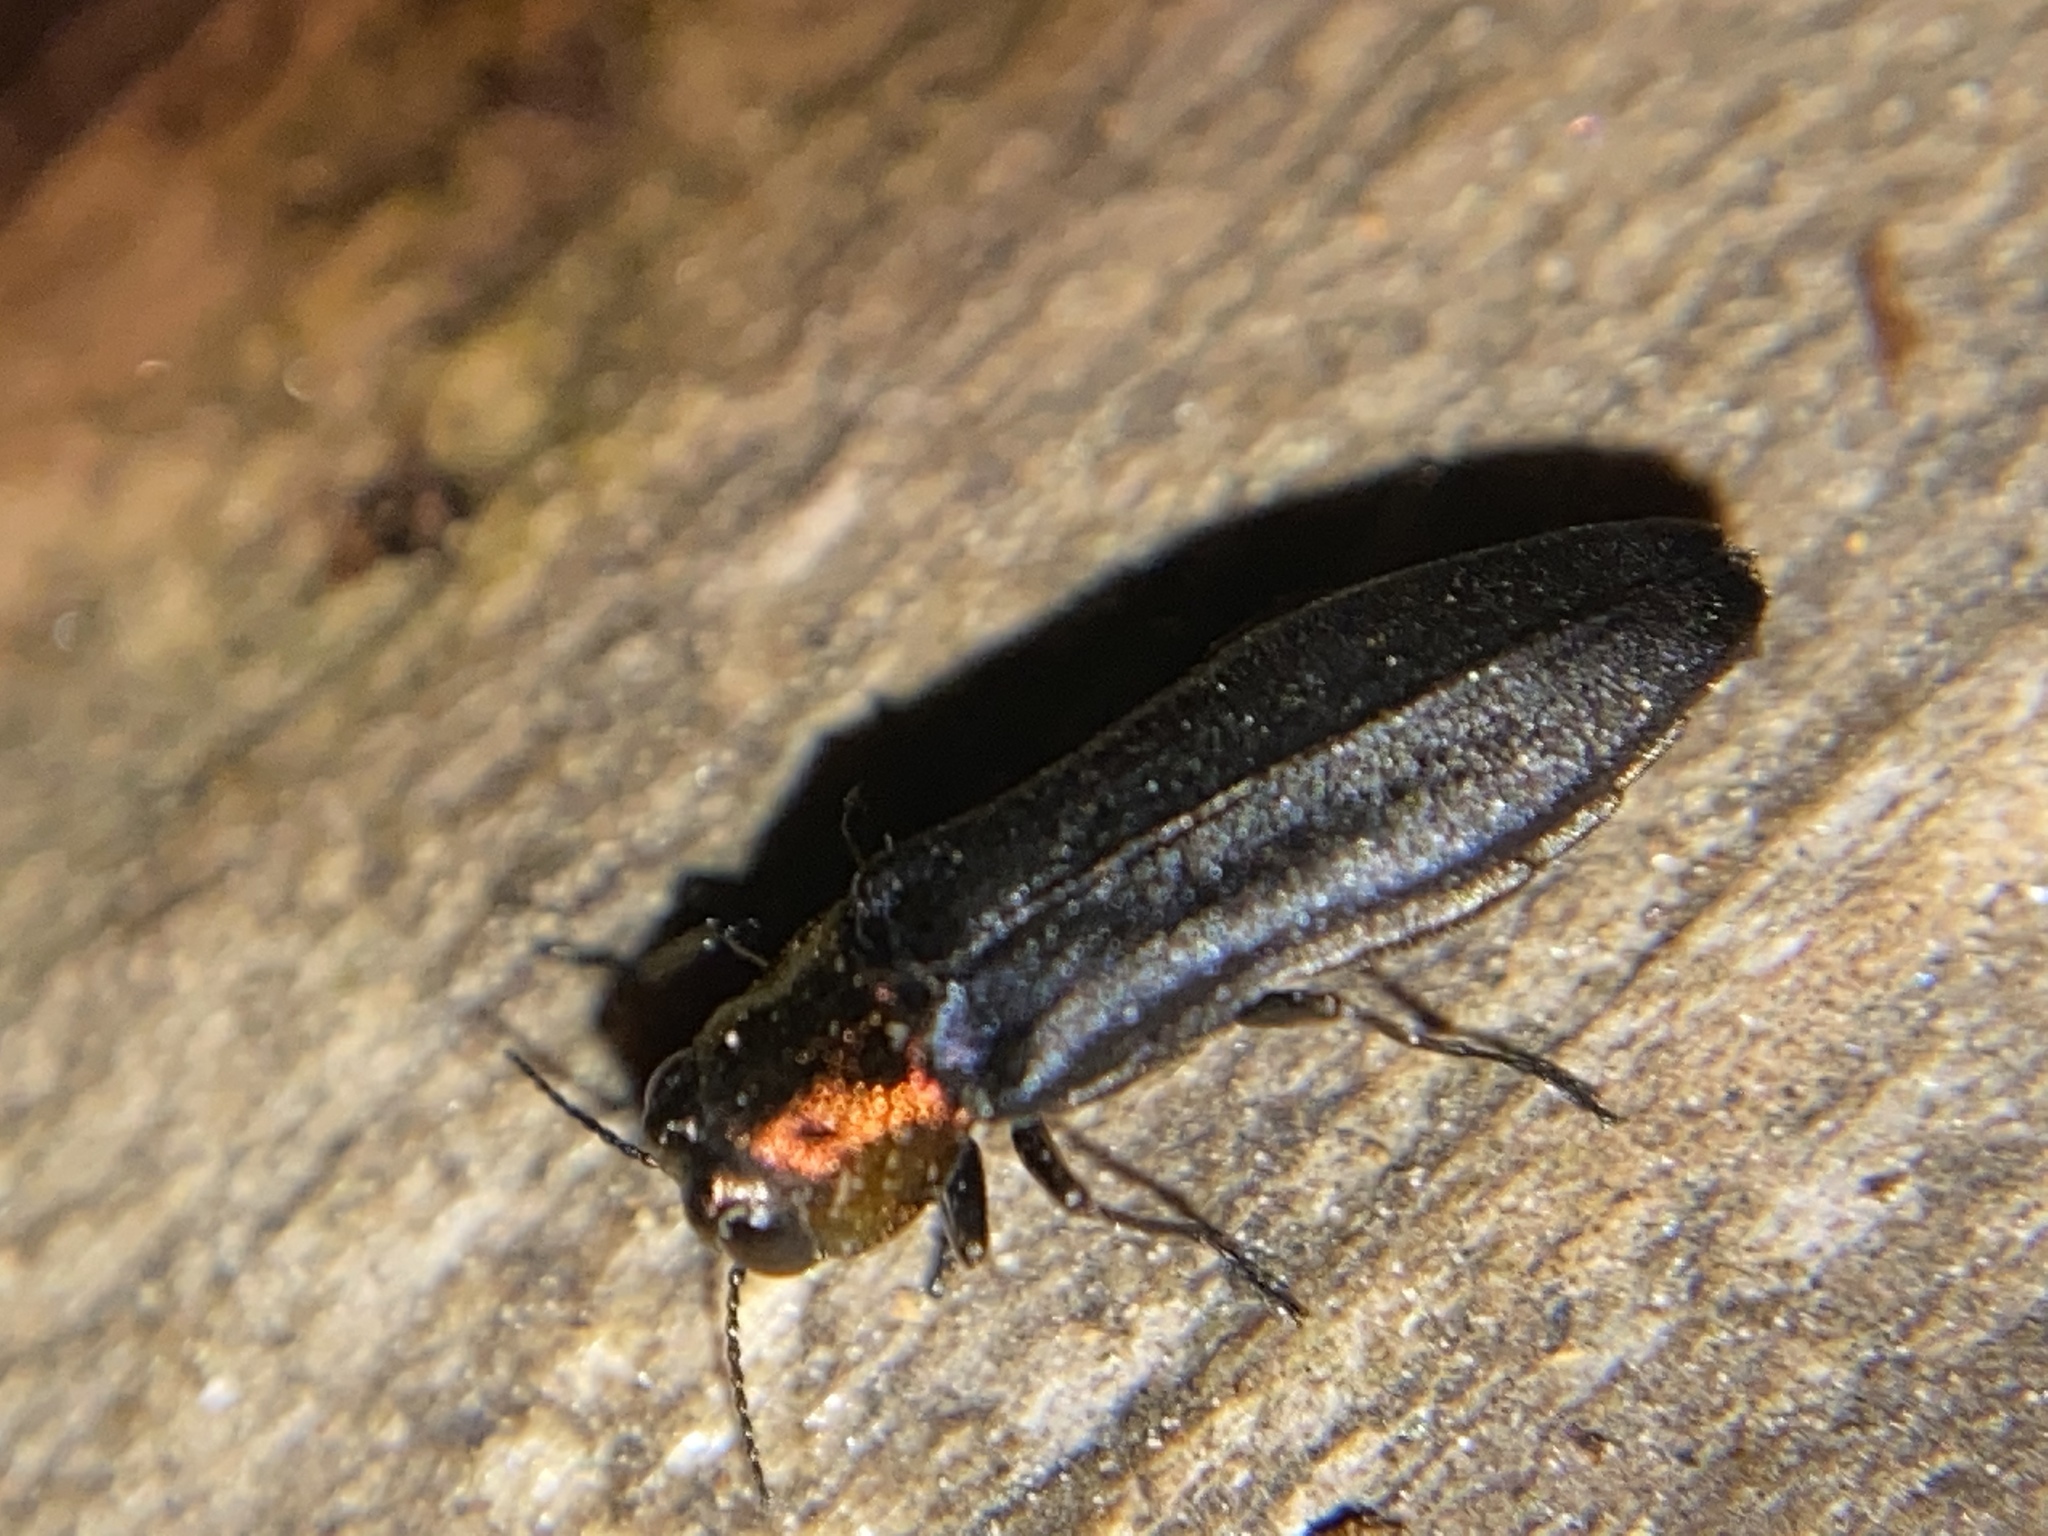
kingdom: Animalia
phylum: Arthropoda
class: Insecta
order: Coleoptera
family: Buprestidae
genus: Agrilus
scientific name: Agrilus ruficollis
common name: Red-necked cane borer beetle
